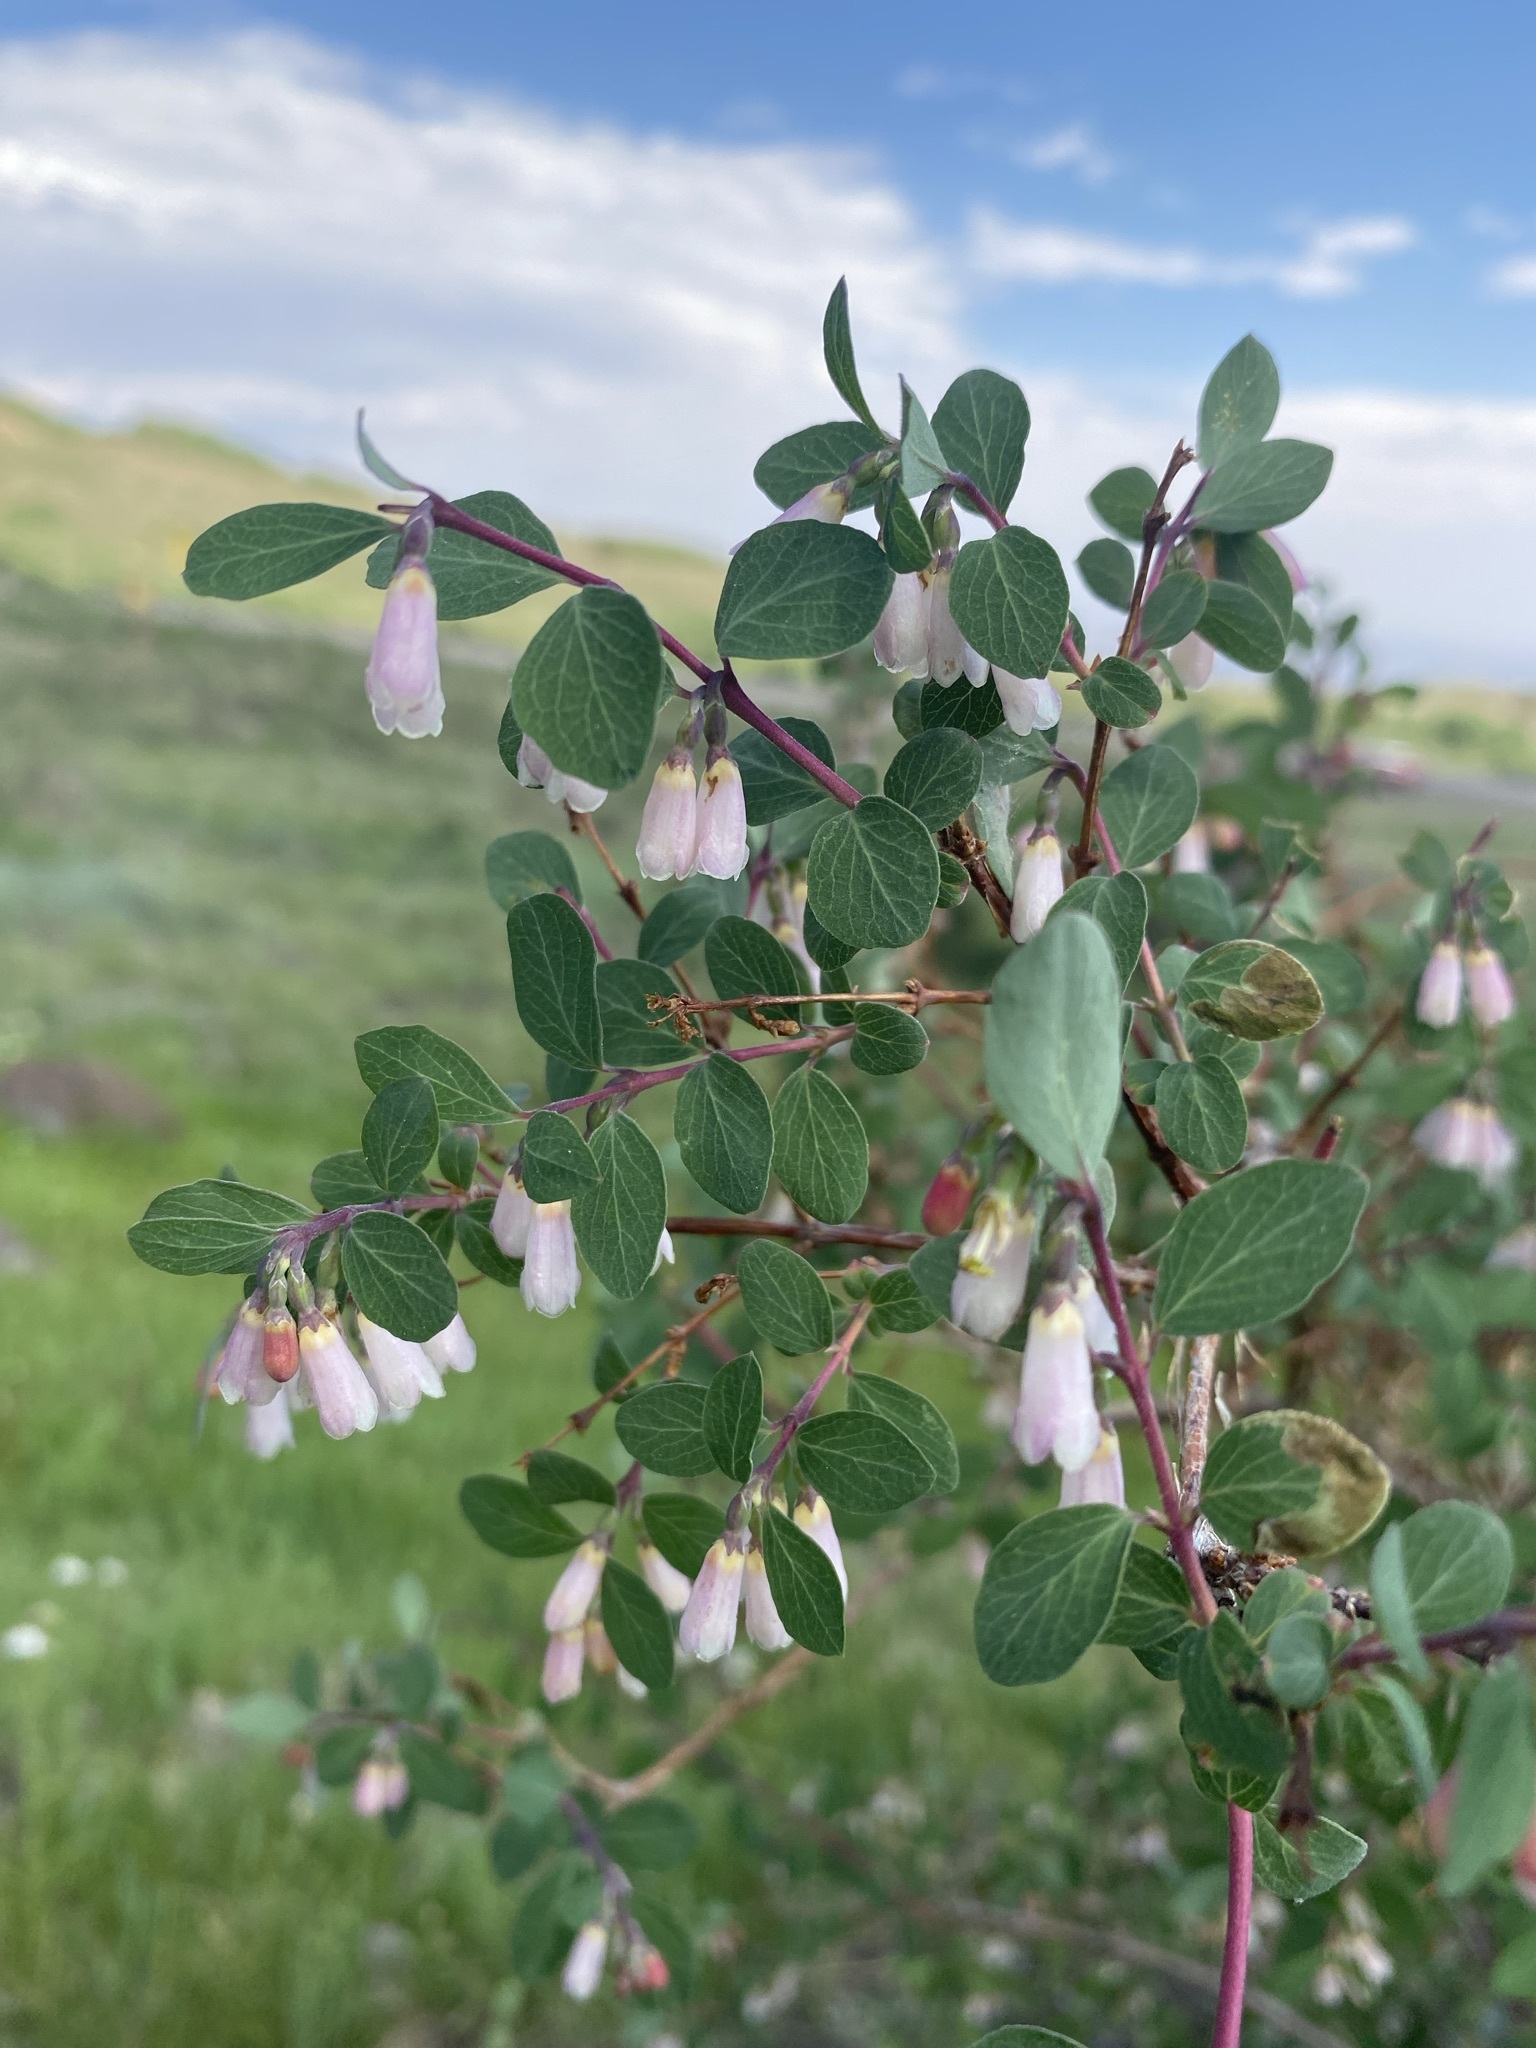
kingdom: Plantae
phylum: Tracheophyta
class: Magnoliopsida
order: Dipsacales
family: Caprifoliaceae
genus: Symphoricarpos
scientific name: Symphoricarpos rotundifolius
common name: Round-leaved snowberry
